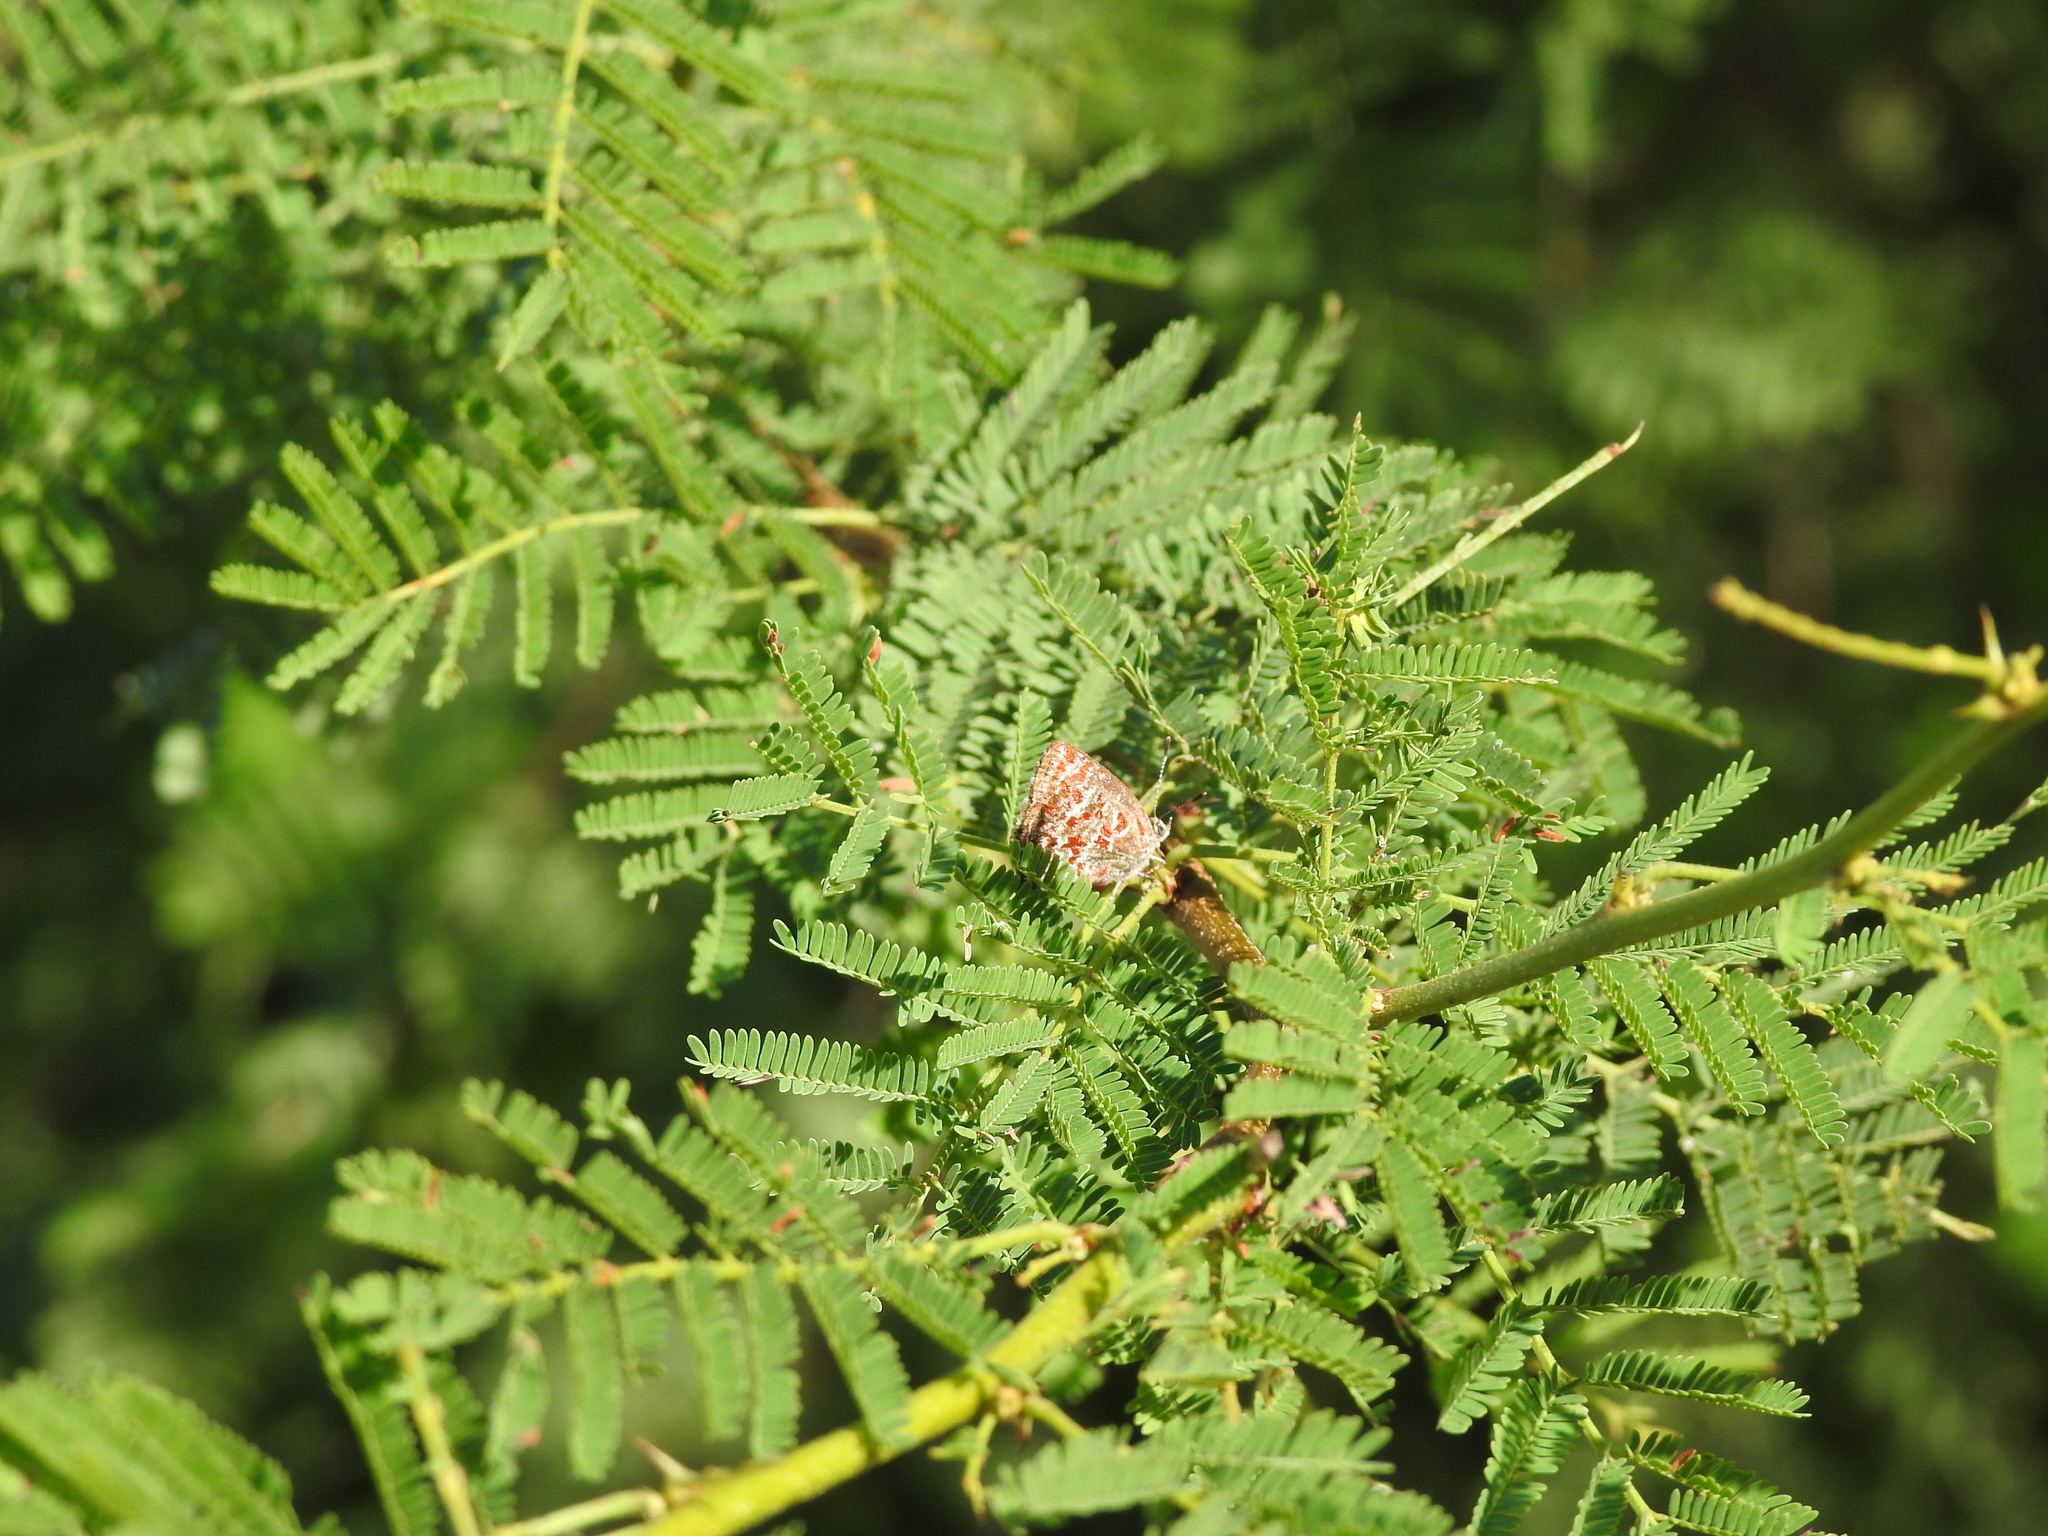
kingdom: Plantae
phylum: Tracheophyta
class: Magnoliopsida
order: Fabales
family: Fabaceae
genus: Vachellia
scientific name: Vachellia caven
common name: Roman cassie
